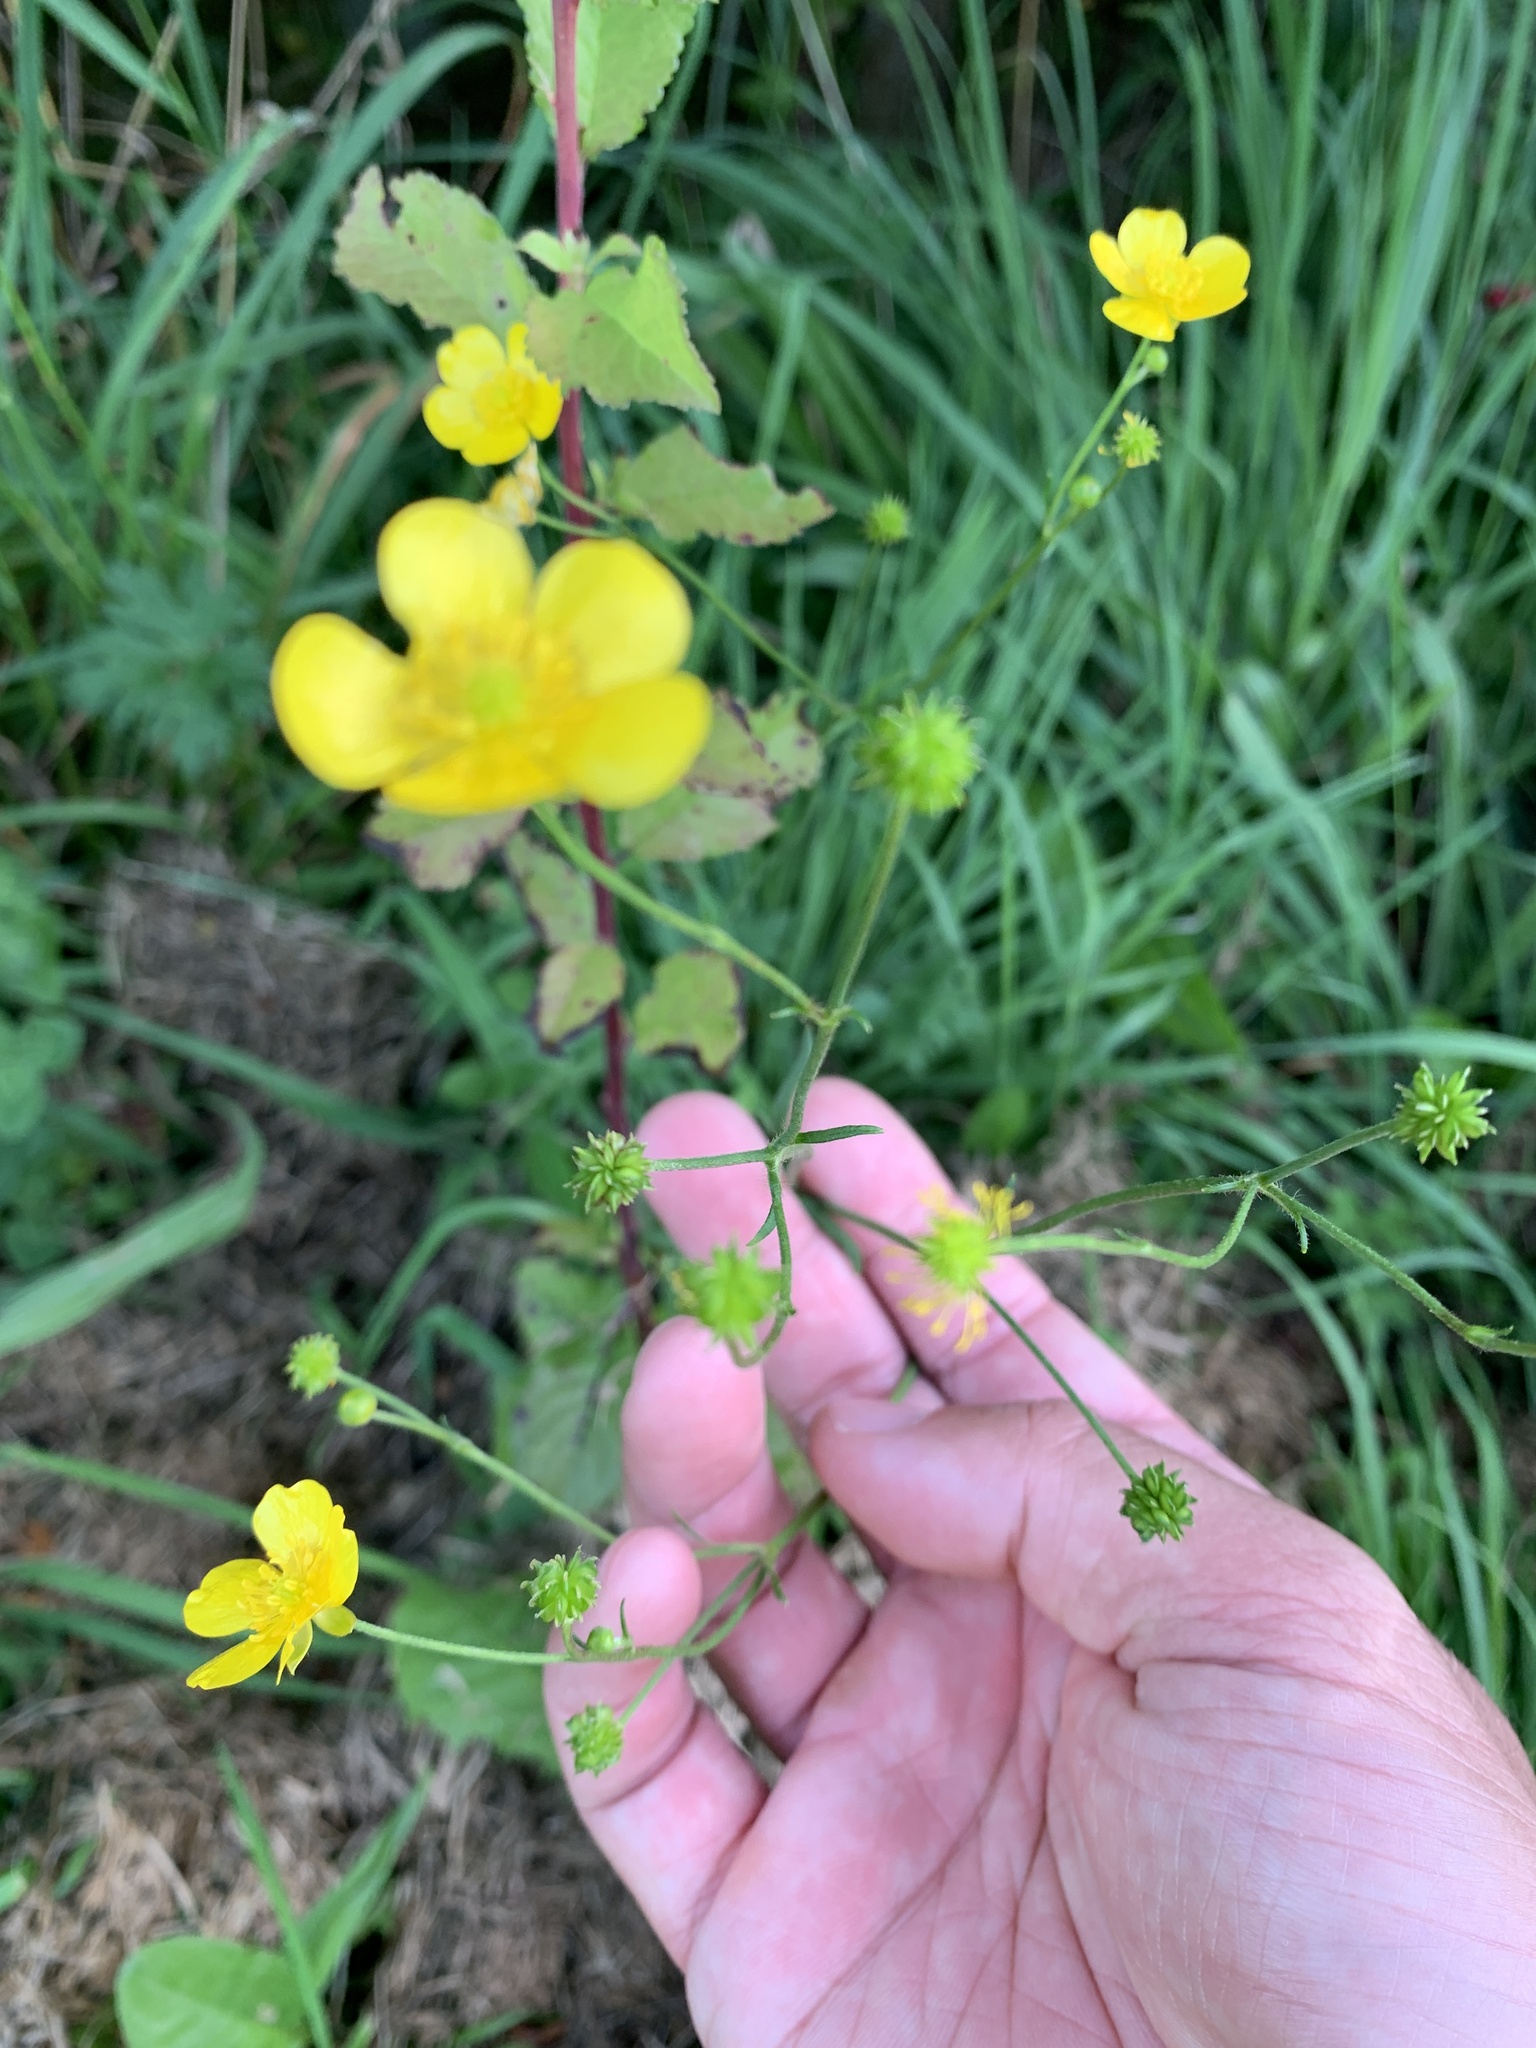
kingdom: Plantae
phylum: Tracheophyta
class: Magnoliopsida
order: Ranunculales
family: Ranunculaceae
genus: Ranunculus
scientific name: Ranunculus acris
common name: Meadow buttercup
